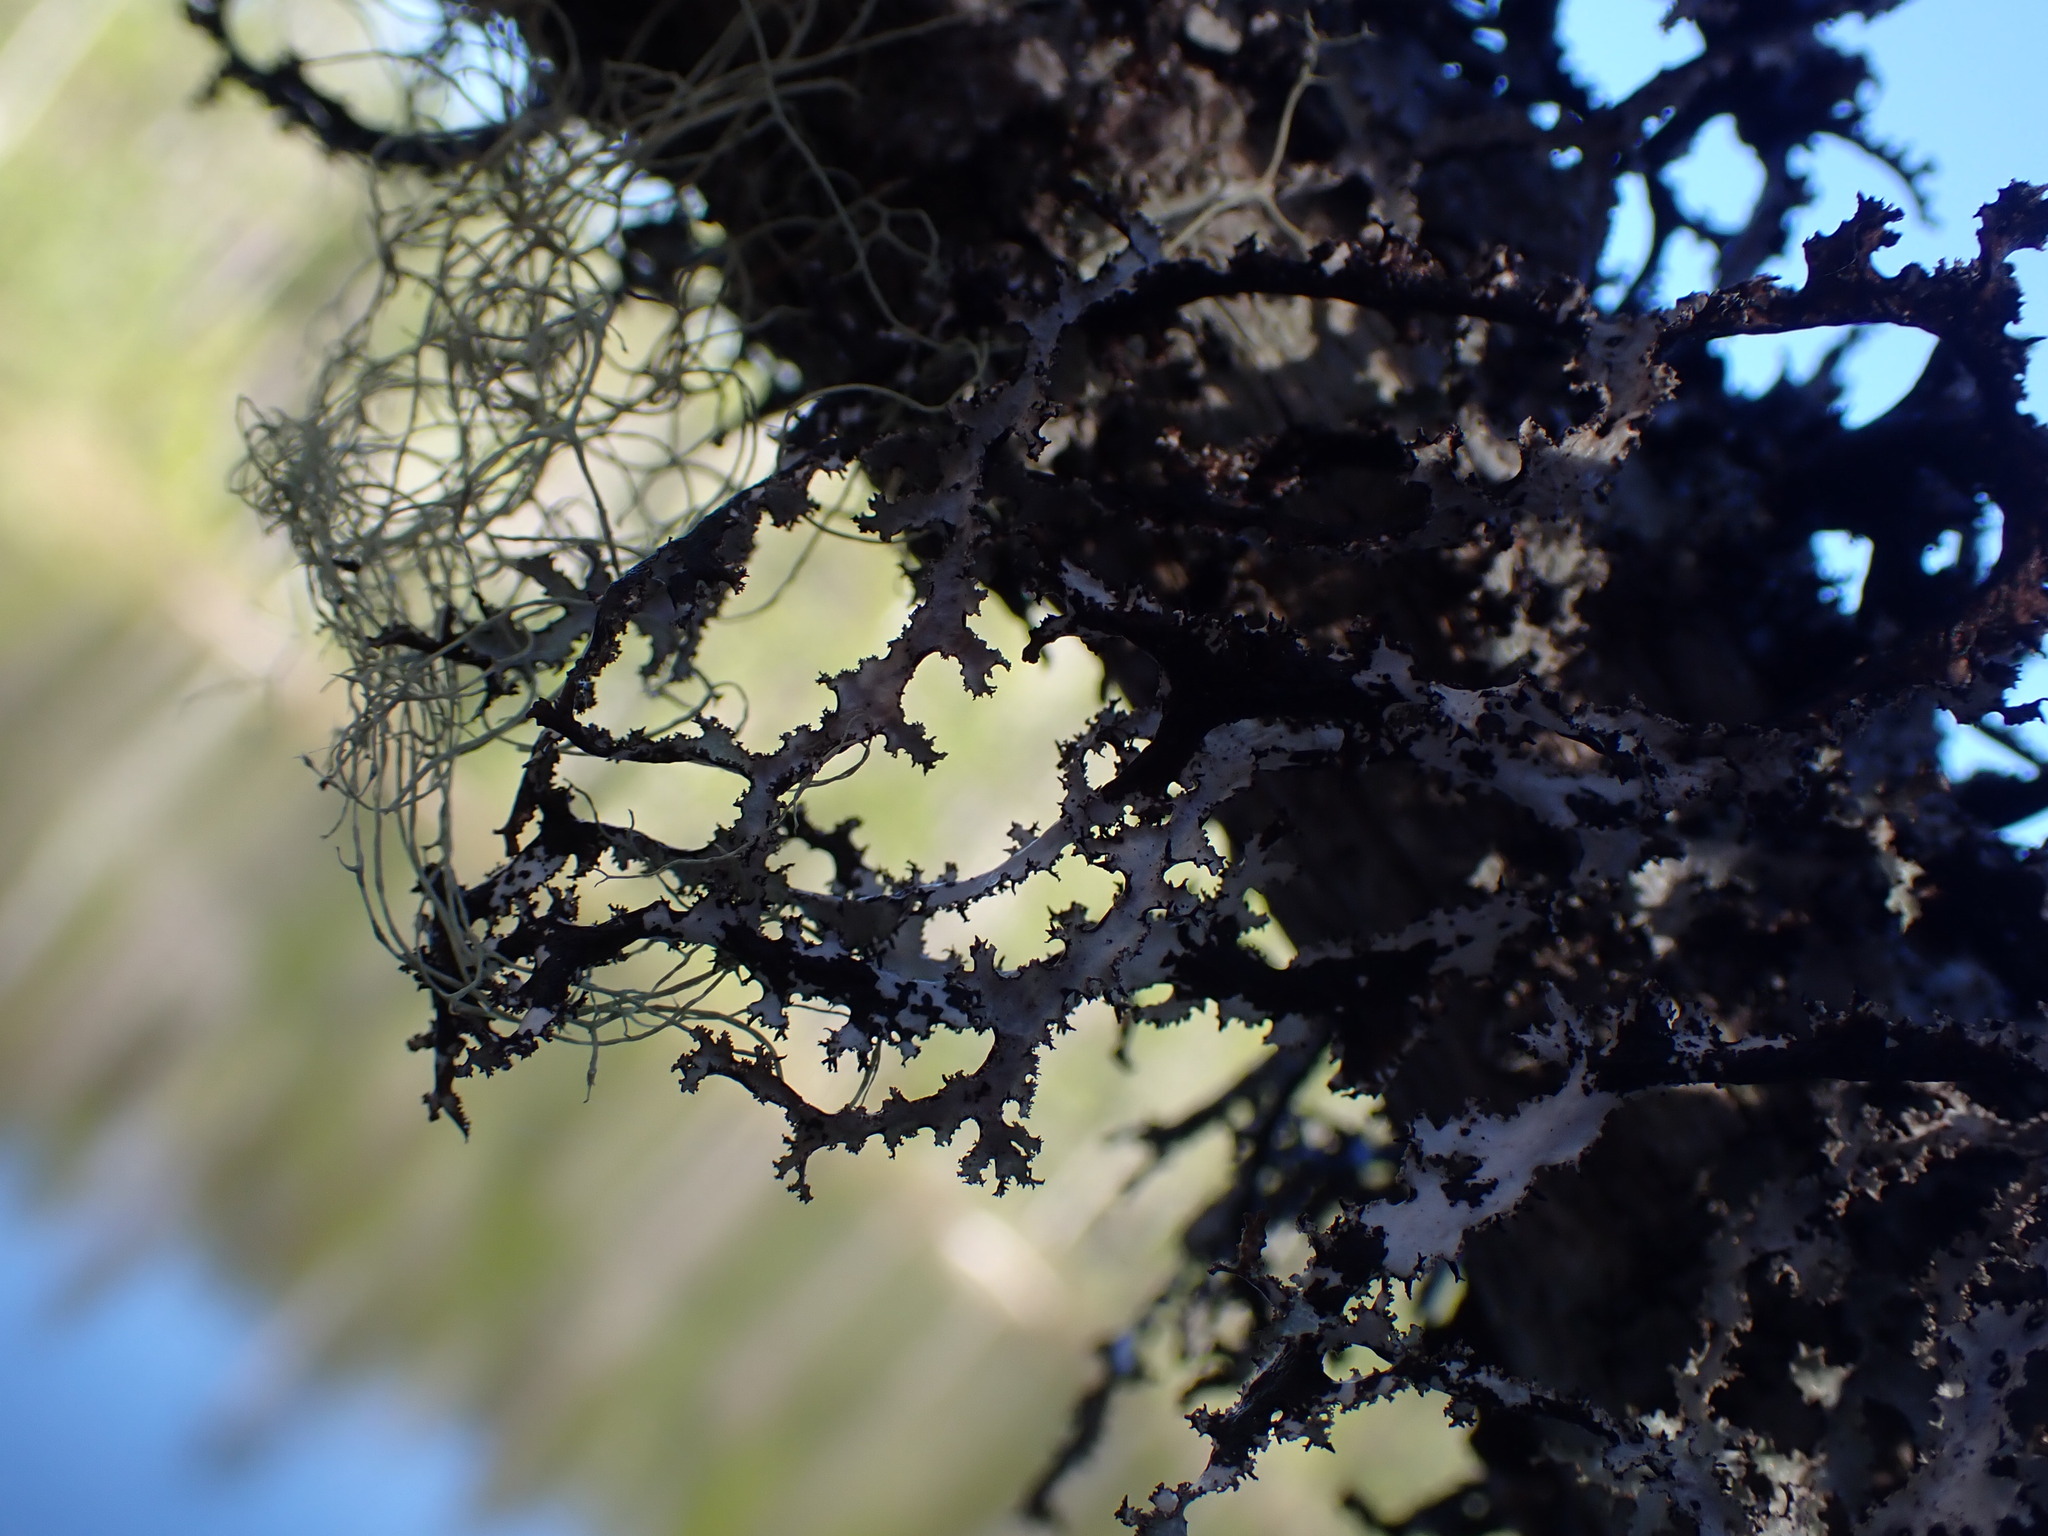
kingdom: Fungi
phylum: Ascomycota
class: Lecanoromycetes
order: Lecanorales
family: Parmeliaceae
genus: Platismatia
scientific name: Platismatia herrei
